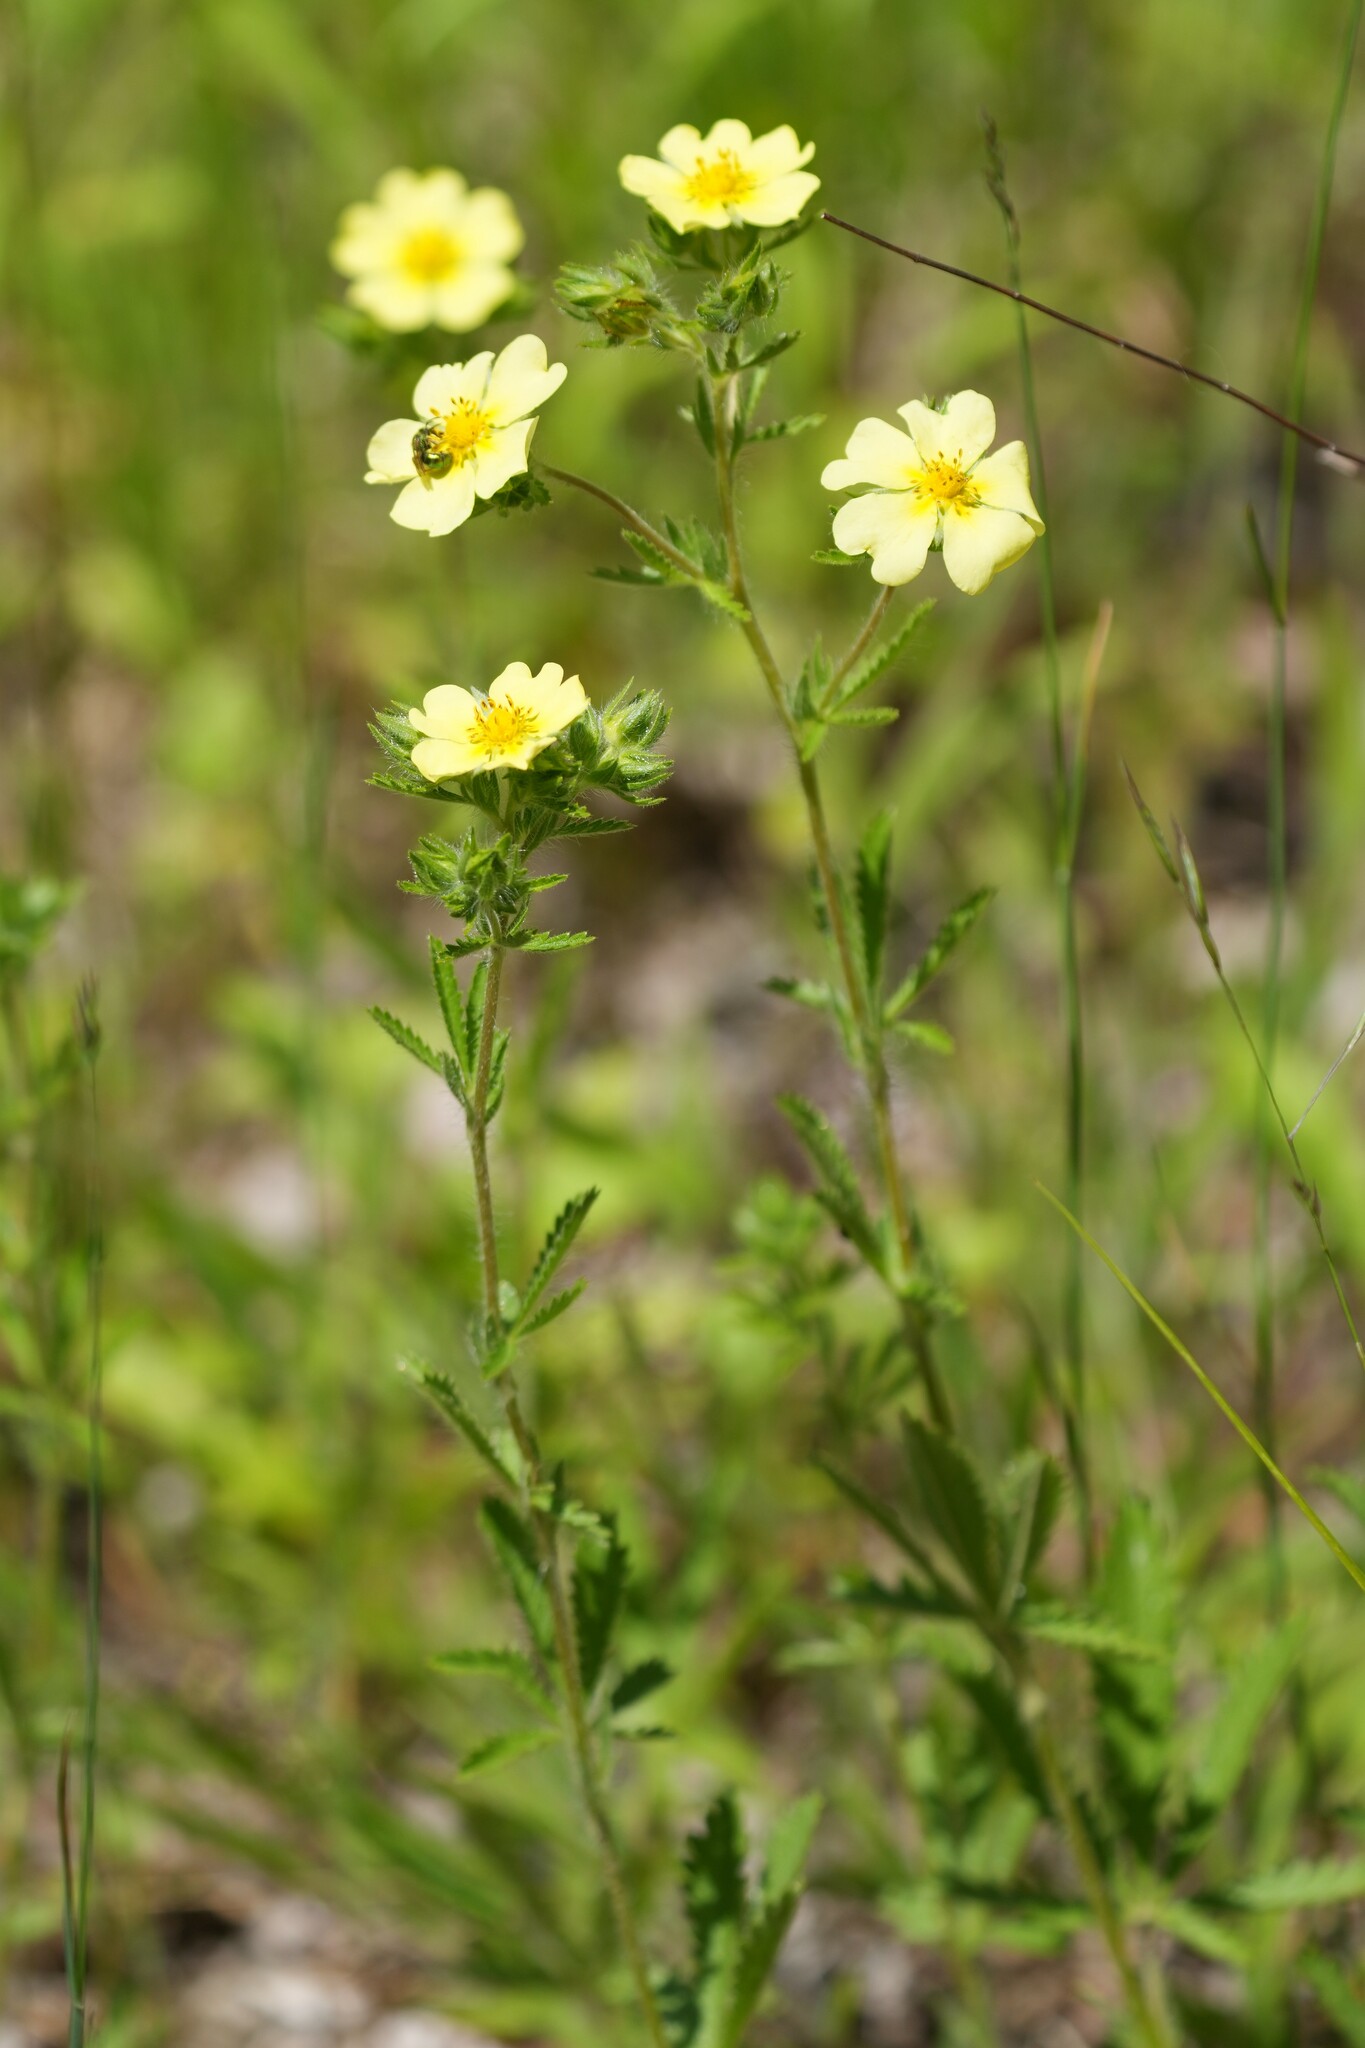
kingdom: Plantae
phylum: Tracheophyta
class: Magnoliopsida
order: Rosales
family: Rosaceae
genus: Potentilla
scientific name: Potentilla recta
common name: Sulphur cinquefoil
